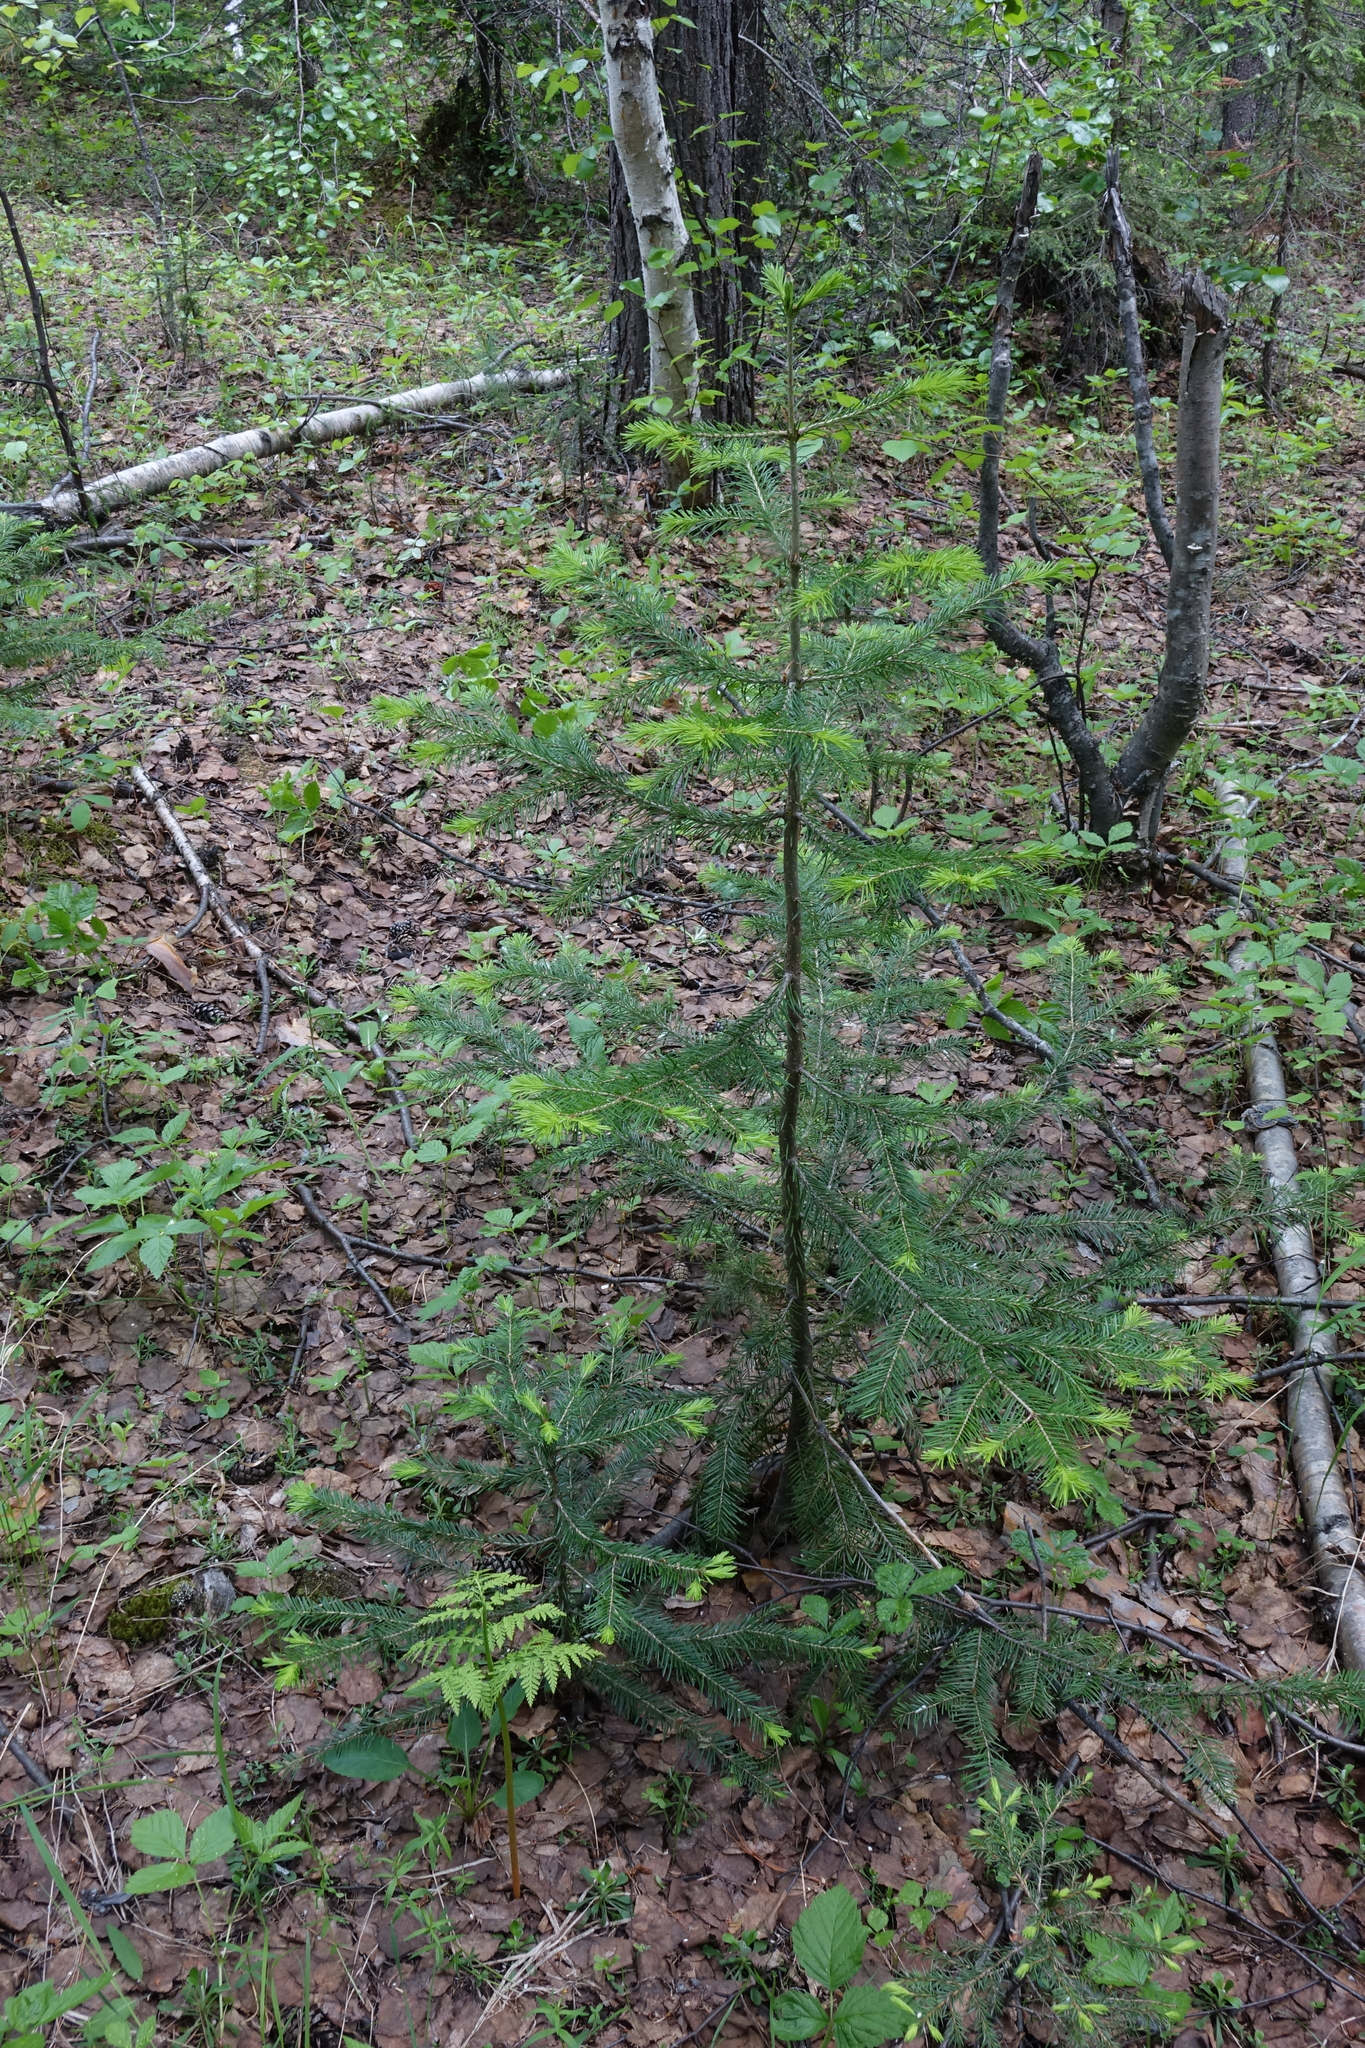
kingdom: Plantae
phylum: Tracheophyta
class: Pinopsida
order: Pinales
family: Pinaceae
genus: Abies
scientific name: Abies sibirica
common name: Siberian fir
